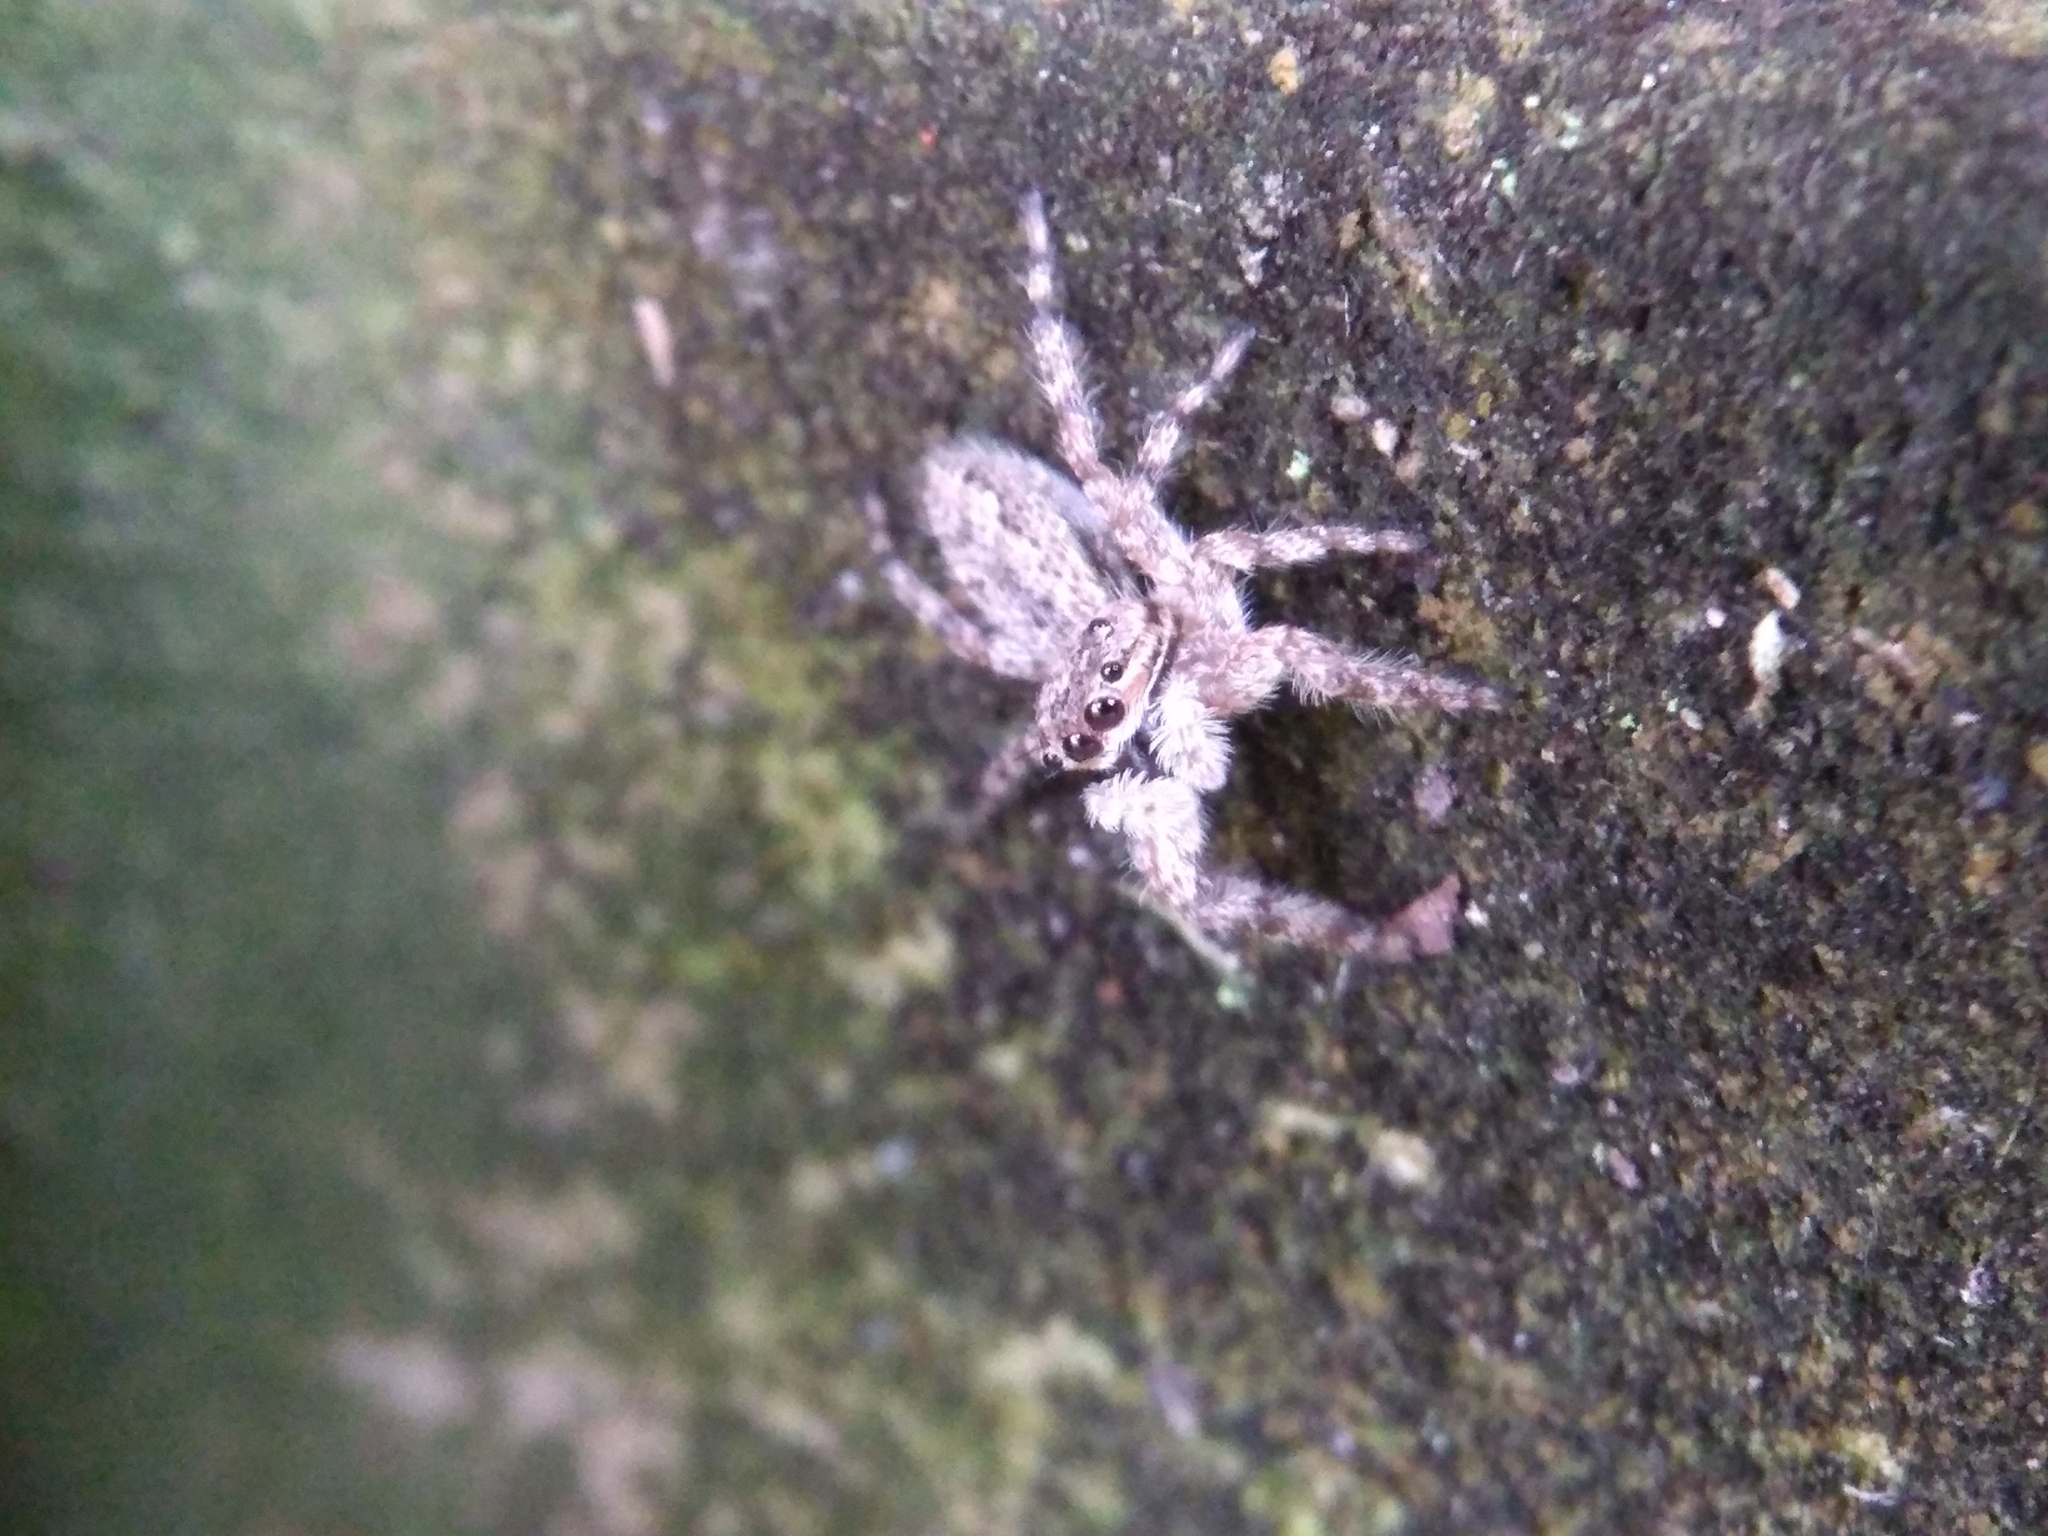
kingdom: Animalia
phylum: Arthropoda
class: Arachnida
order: Araneae
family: Salticidae
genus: Platycryptus
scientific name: Platycryptus undatus
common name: Tan jumping spider
